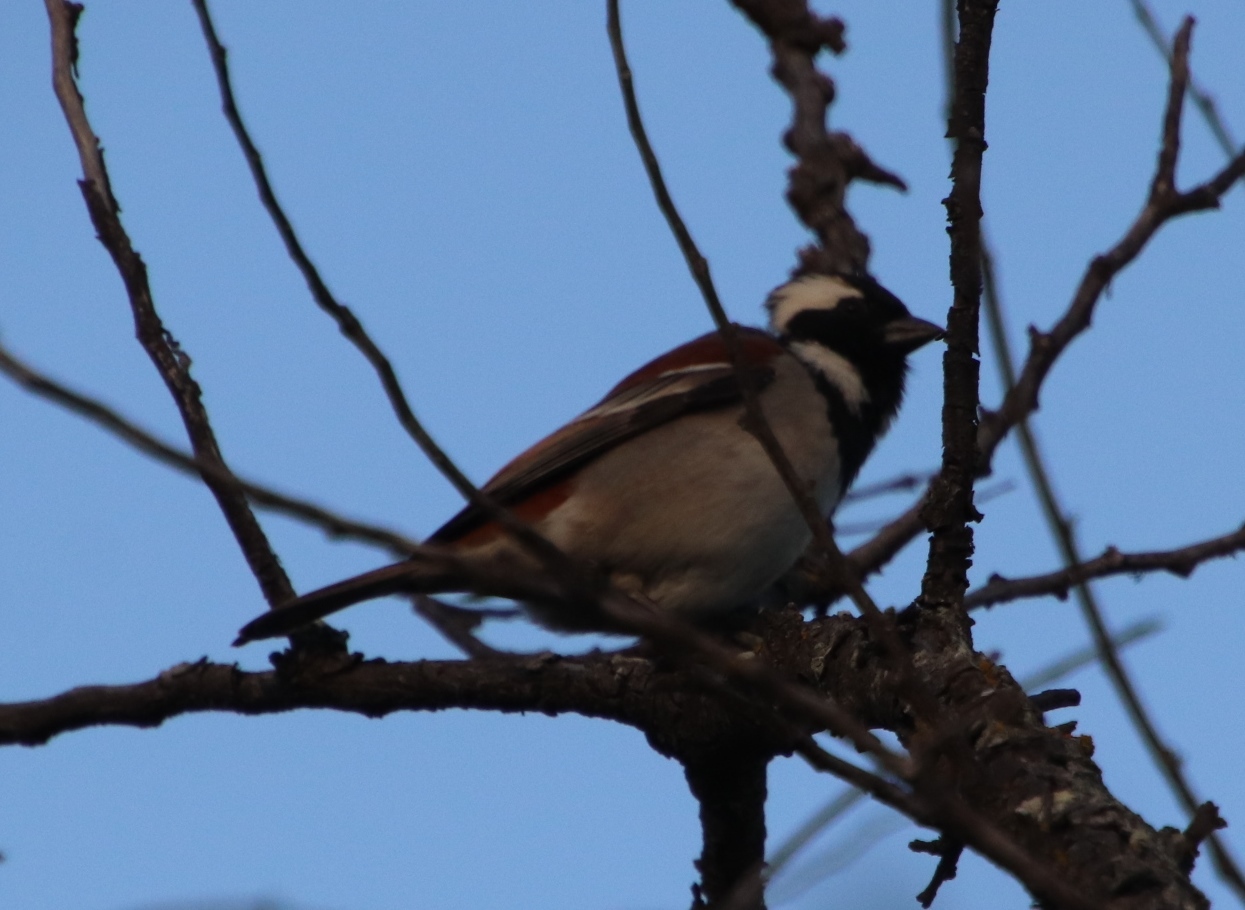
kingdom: Animalia
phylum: Chordata
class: Aves
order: Passeriformes
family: Passeridae
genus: Passer
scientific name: Passer melanurus
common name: Cape sparrow
